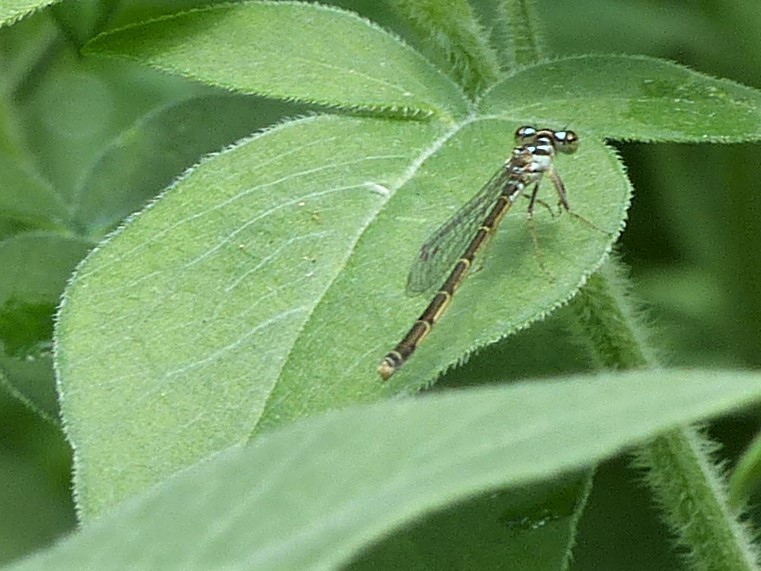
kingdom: Animalia
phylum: Arthropoda
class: Insecta
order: Odonata
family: Coenagrionidae
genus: Ischnura
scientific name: Ischnura posita
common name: Fragile forktail
